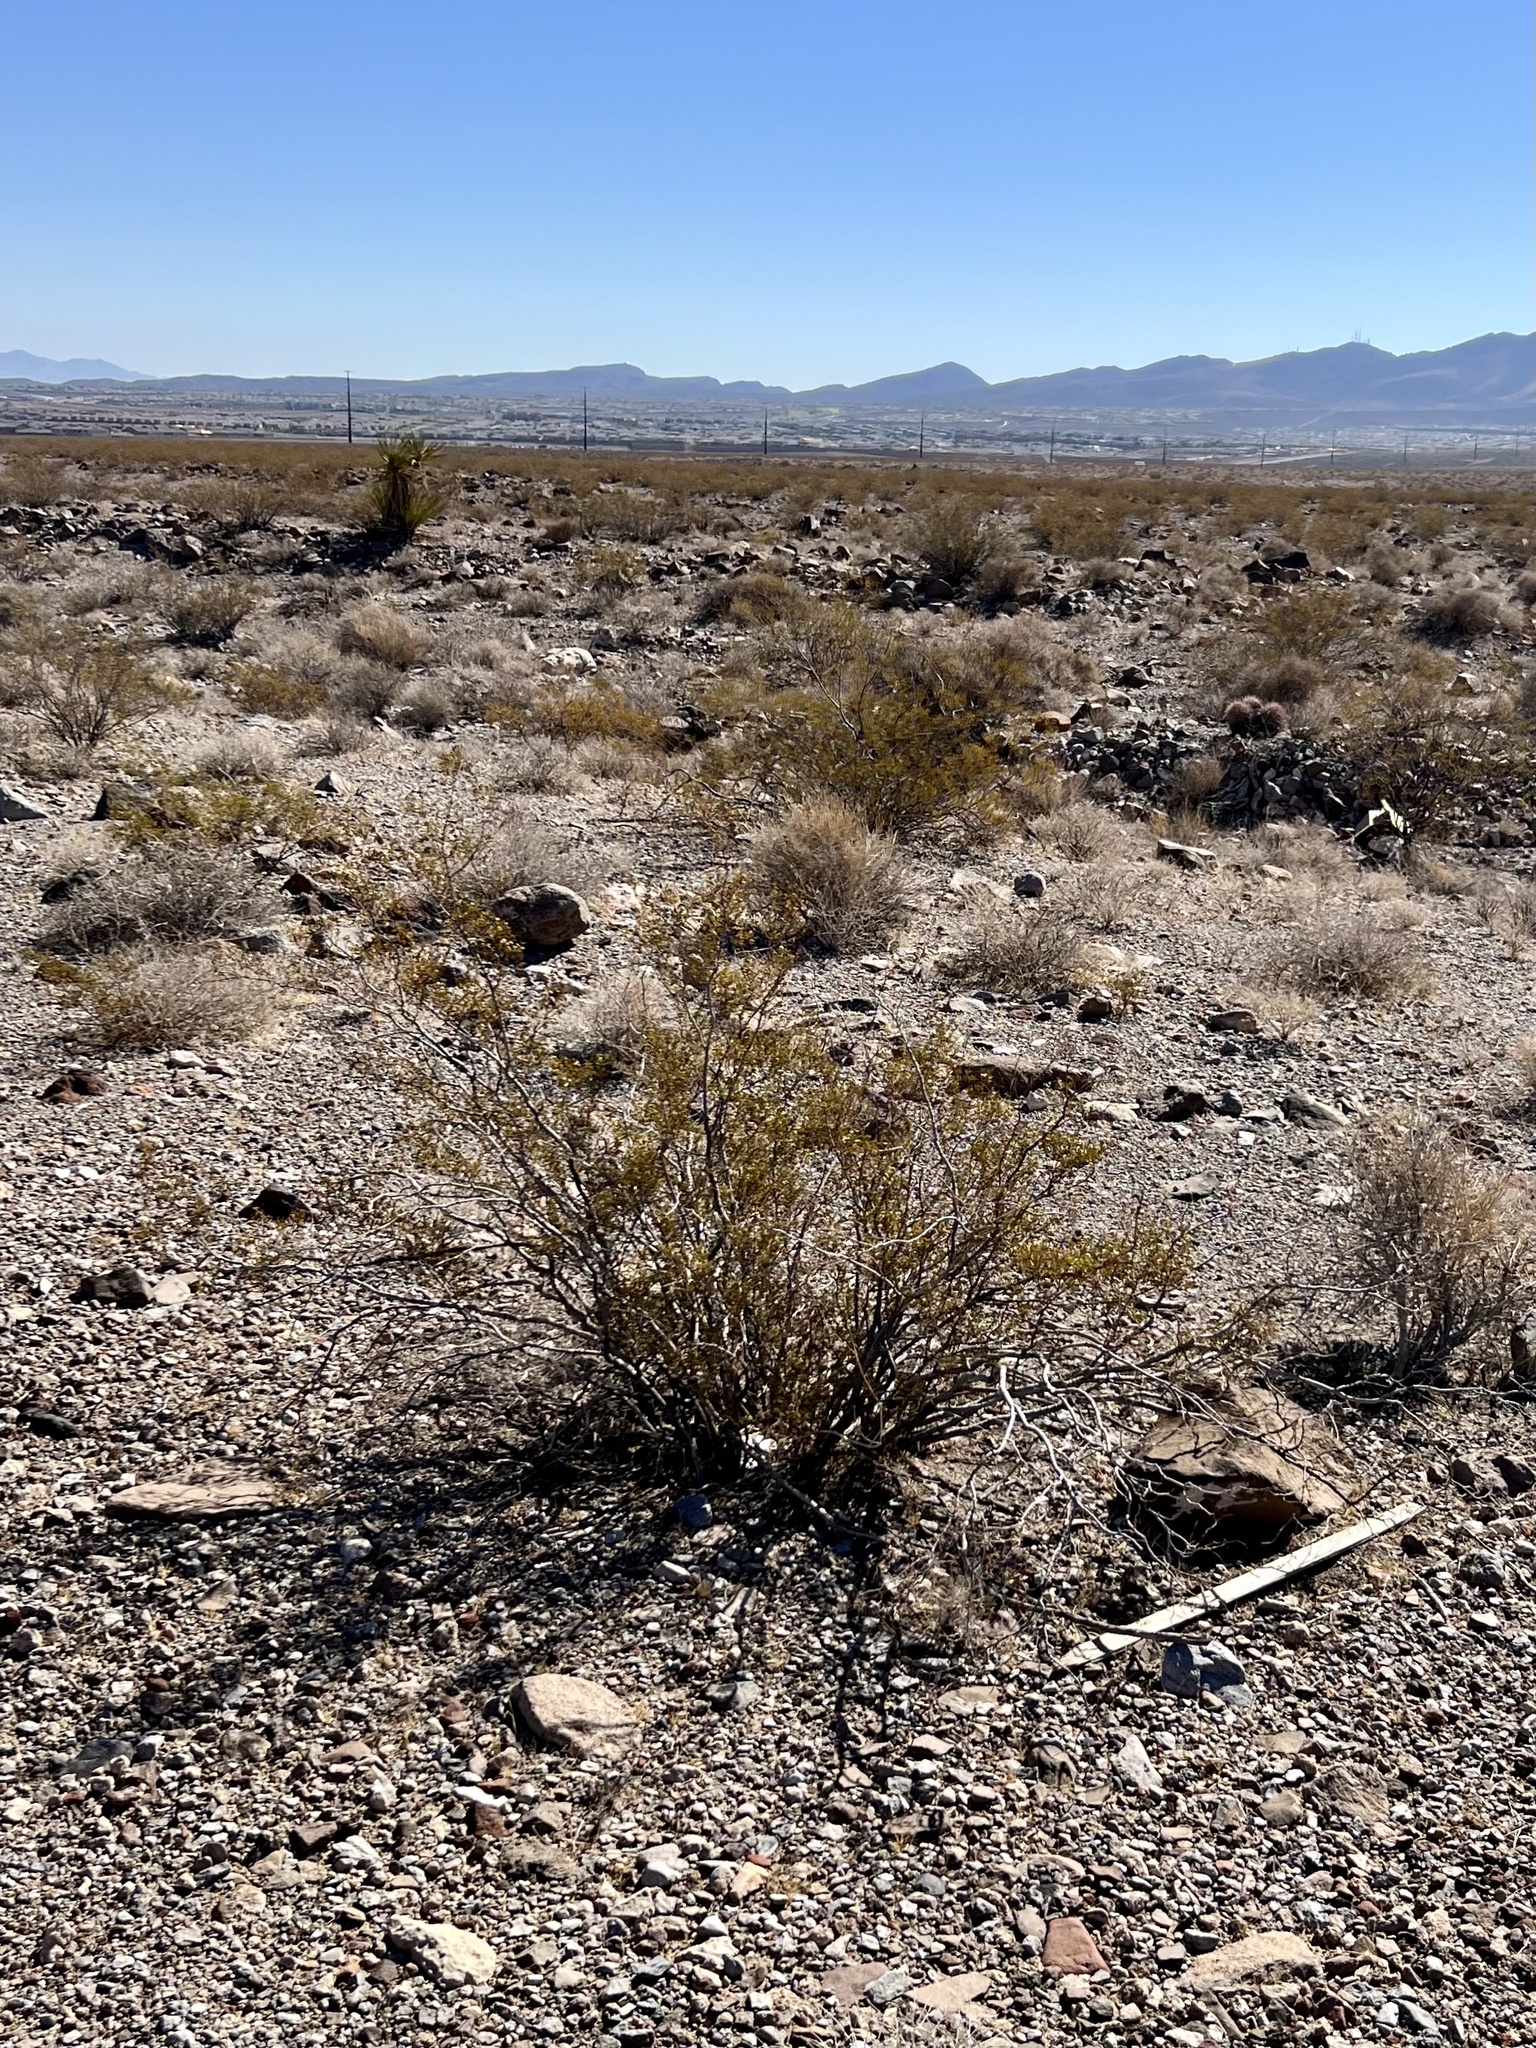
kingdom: Plantae
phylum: Tracheophyta
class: Magnoliopsida
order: Zygophyllales
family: Zygophyllaceae
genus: Larrea
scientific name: Larrea tridentata
